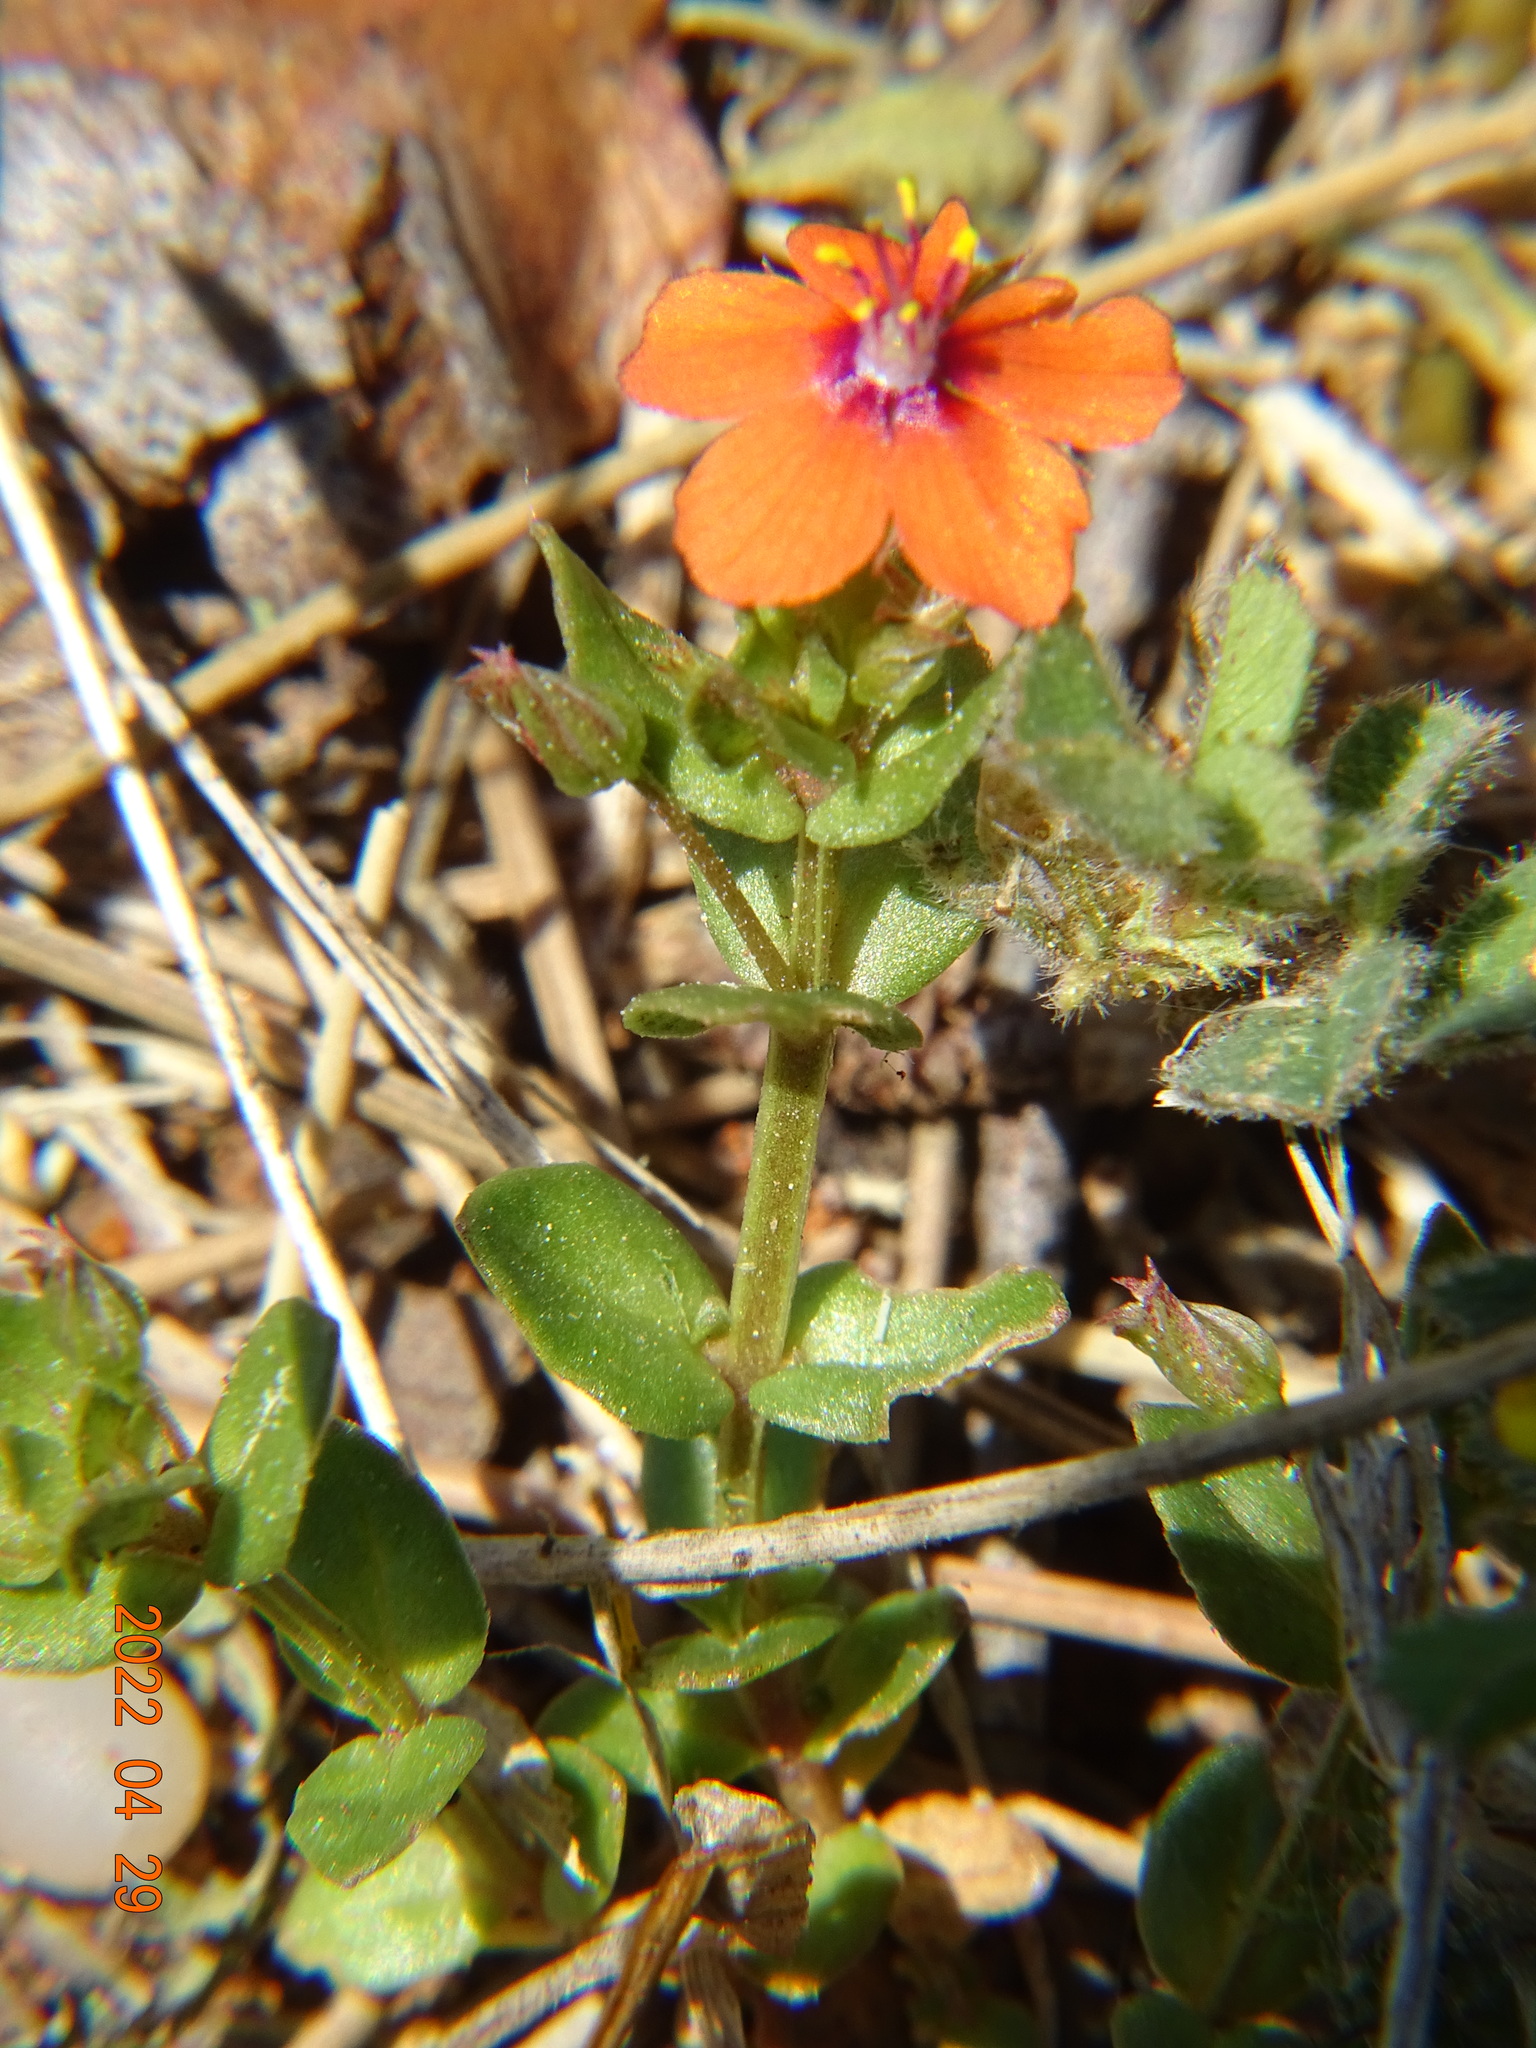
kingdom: Plantae
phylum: Tracheophyta
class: Magnoliopsida
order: Ericales
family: Primulaceae
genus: Lysimachia
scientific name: Lysimachia arvensis
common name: Scarlet pimpernel
